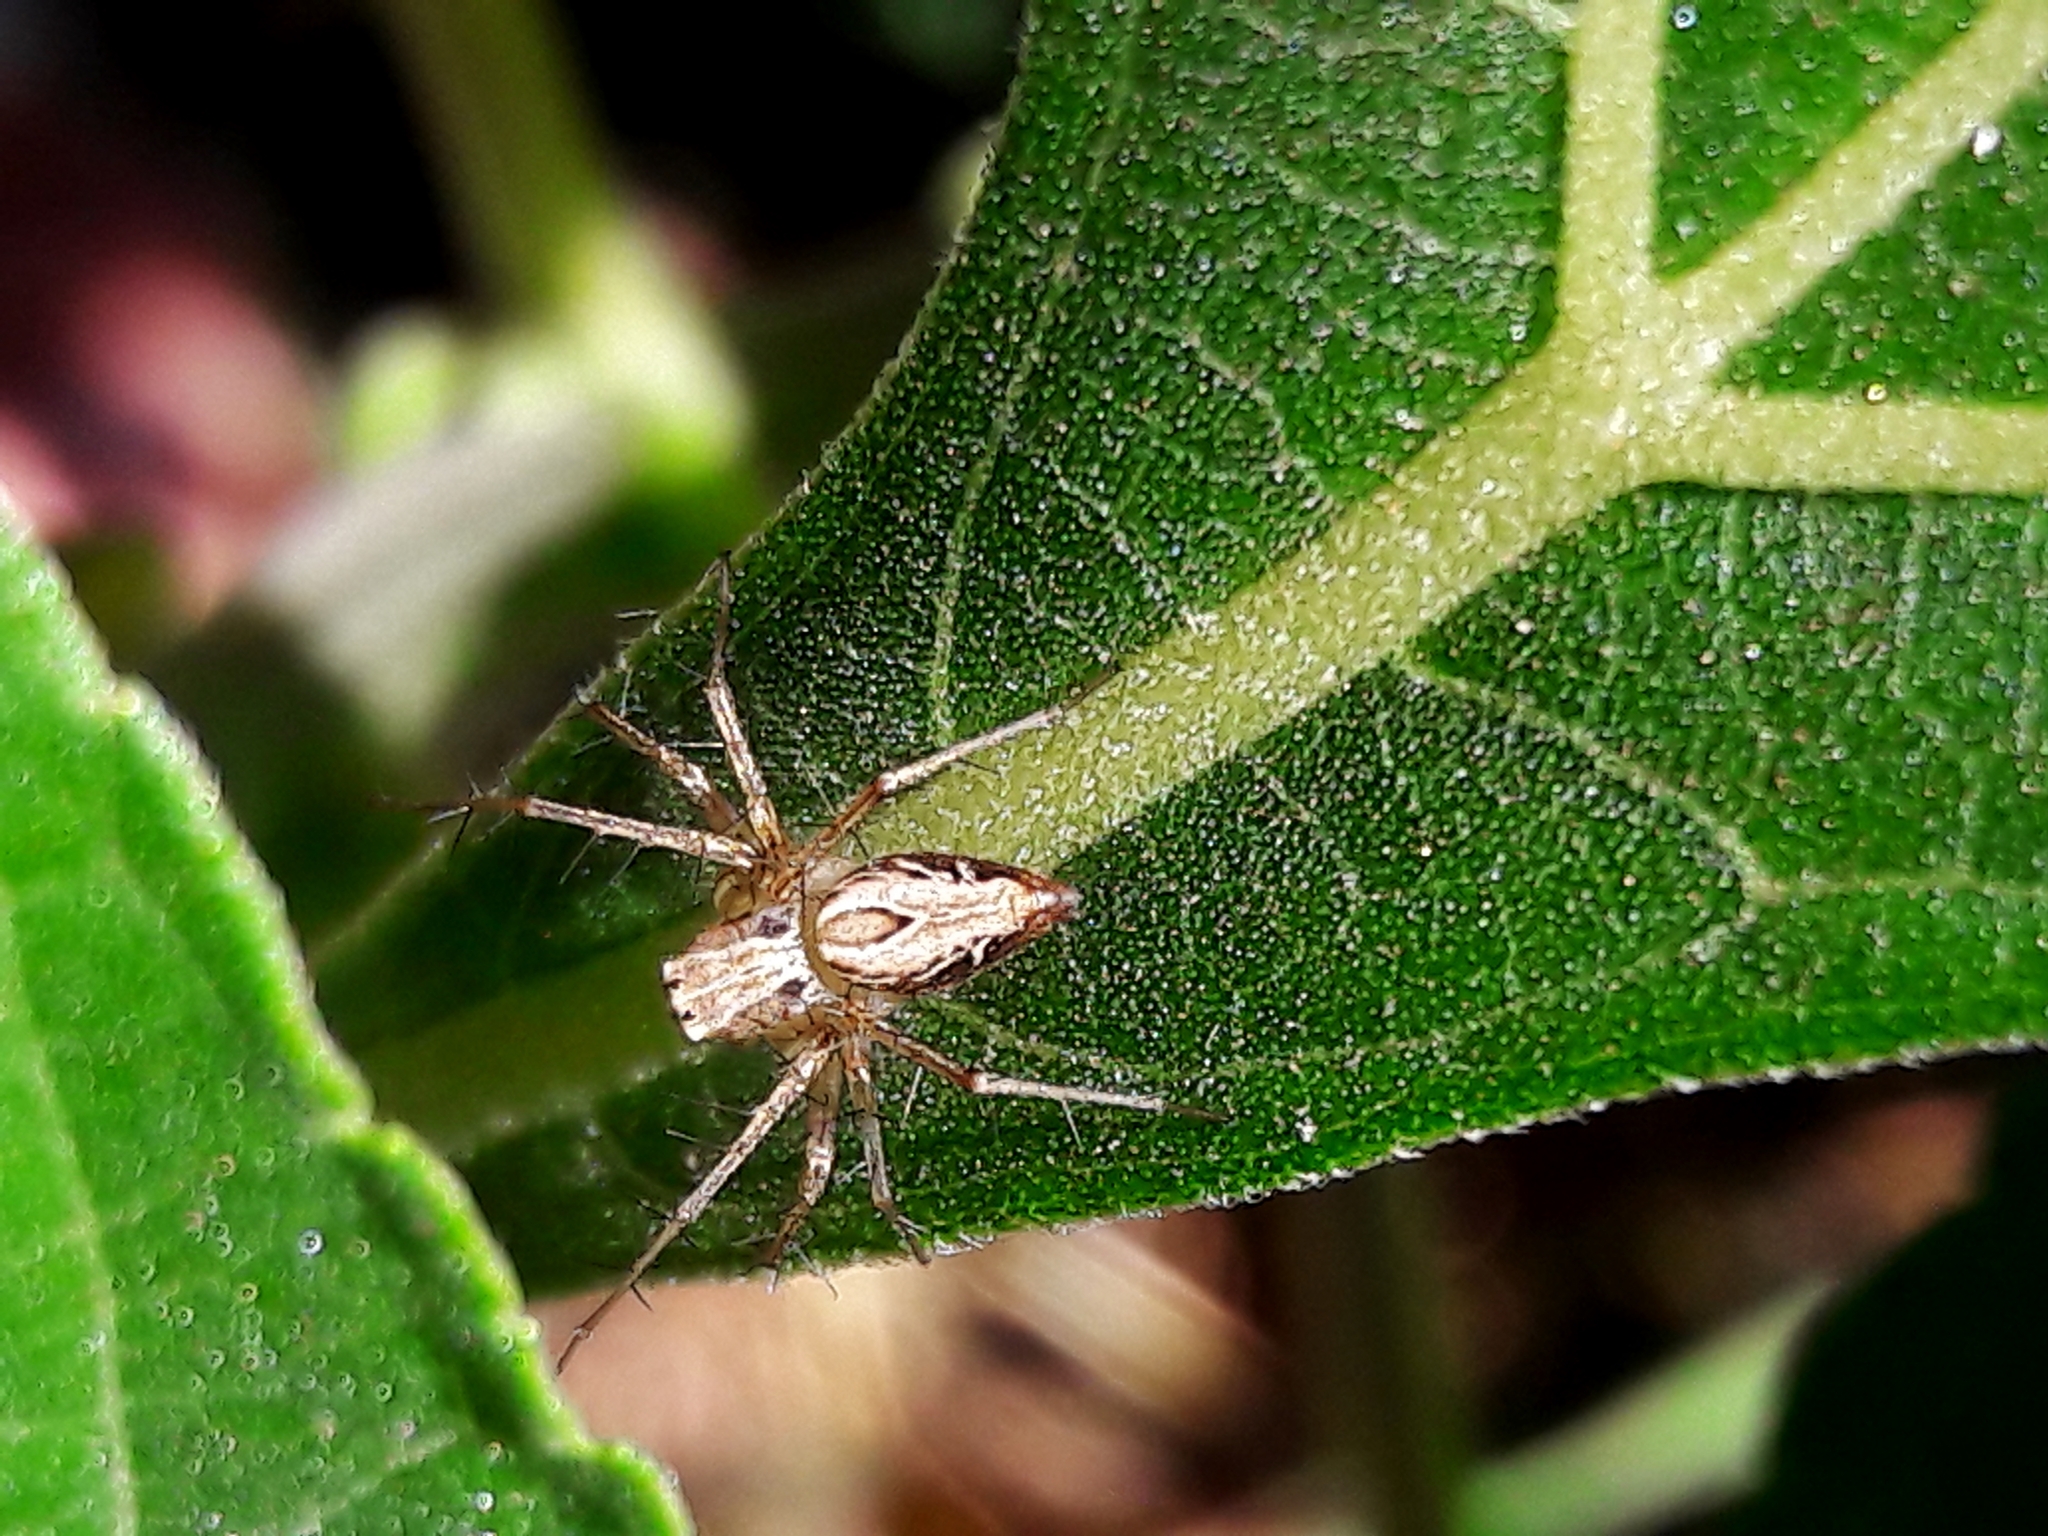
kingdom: Animalia
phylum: Arthropoda
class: Arachnida
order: Araneae
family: Oxyopidae
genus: Oxyopes
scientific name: Oxyopes salticus
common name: Lynx spiders
